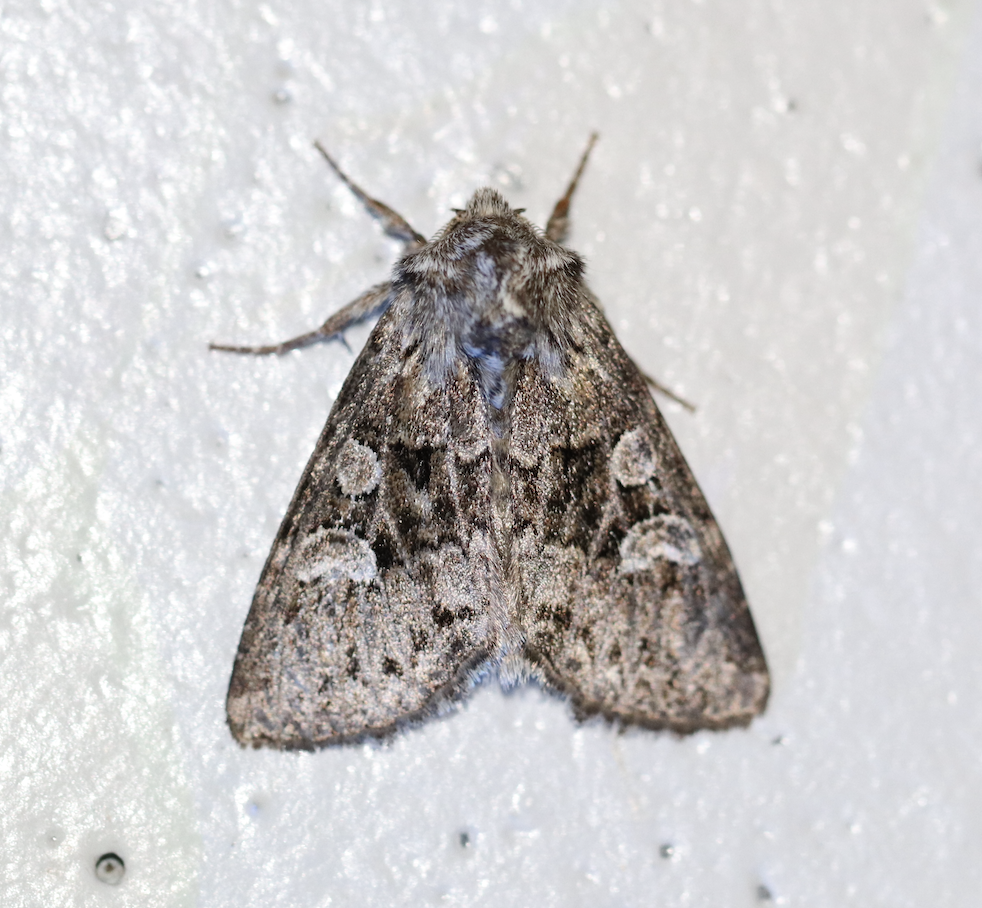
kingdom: Animalia
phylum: Arthropoda
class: Insecta
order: Lepidoptera
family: Noctuidae
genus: Pachetra
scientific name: Pachetra sagittigera
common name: Feathered ear
